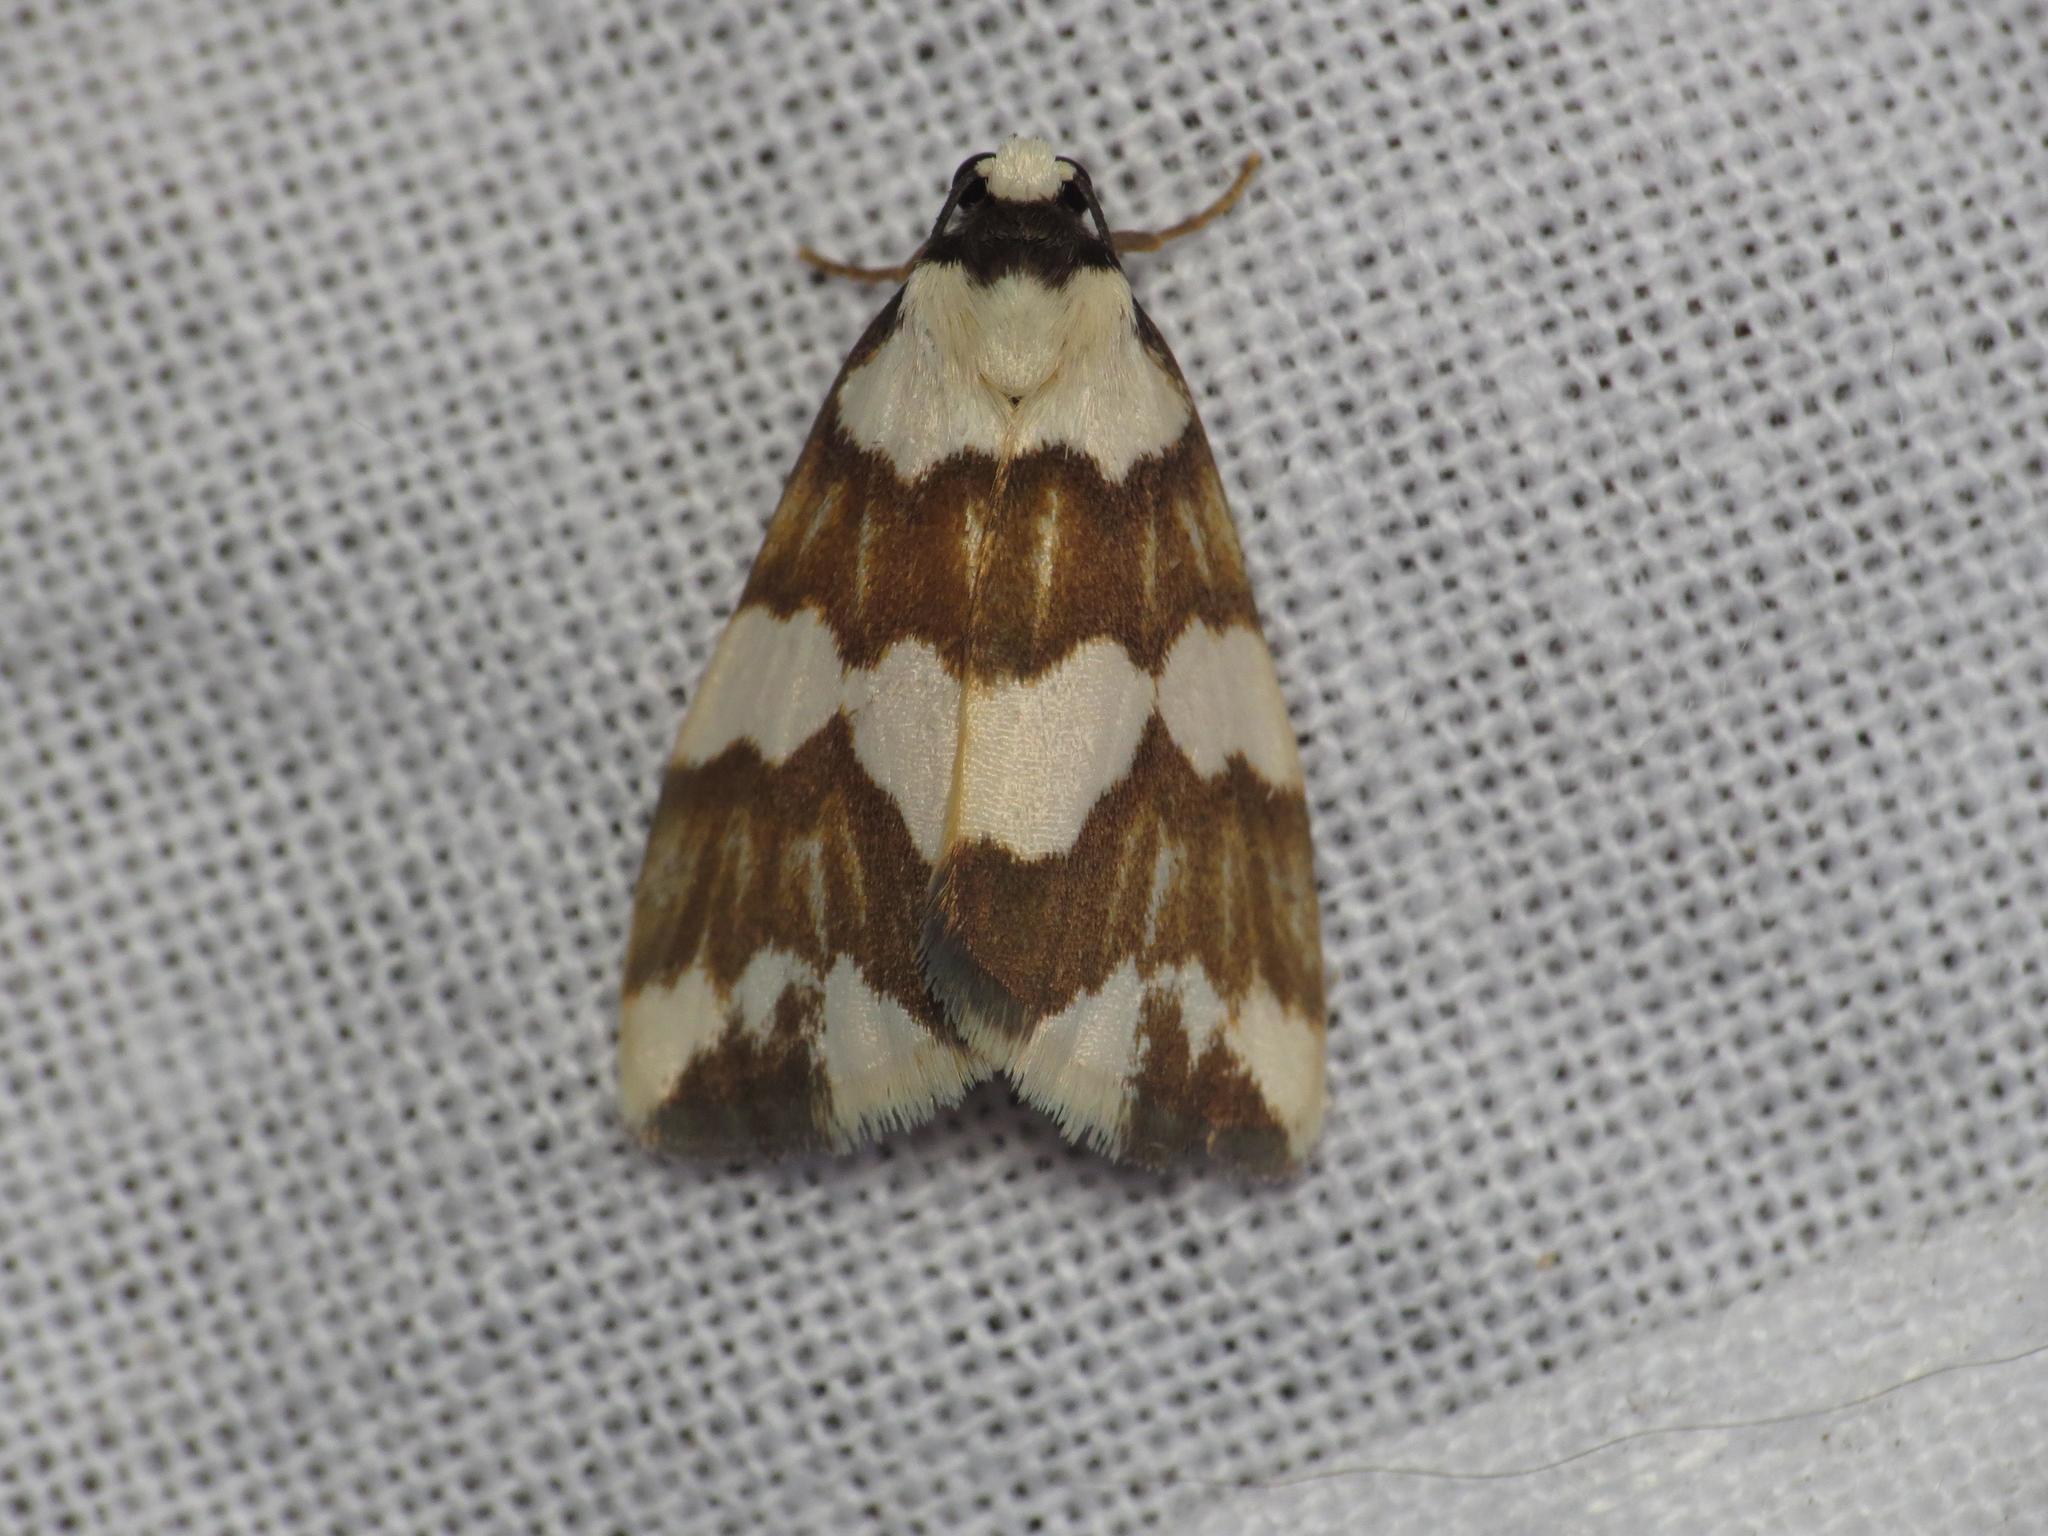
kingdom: Animalia
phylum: Arthropoda
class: Insecta
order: Lepidoptera
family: Erebidae
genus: Termessa
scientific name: Termessa gratiosa
